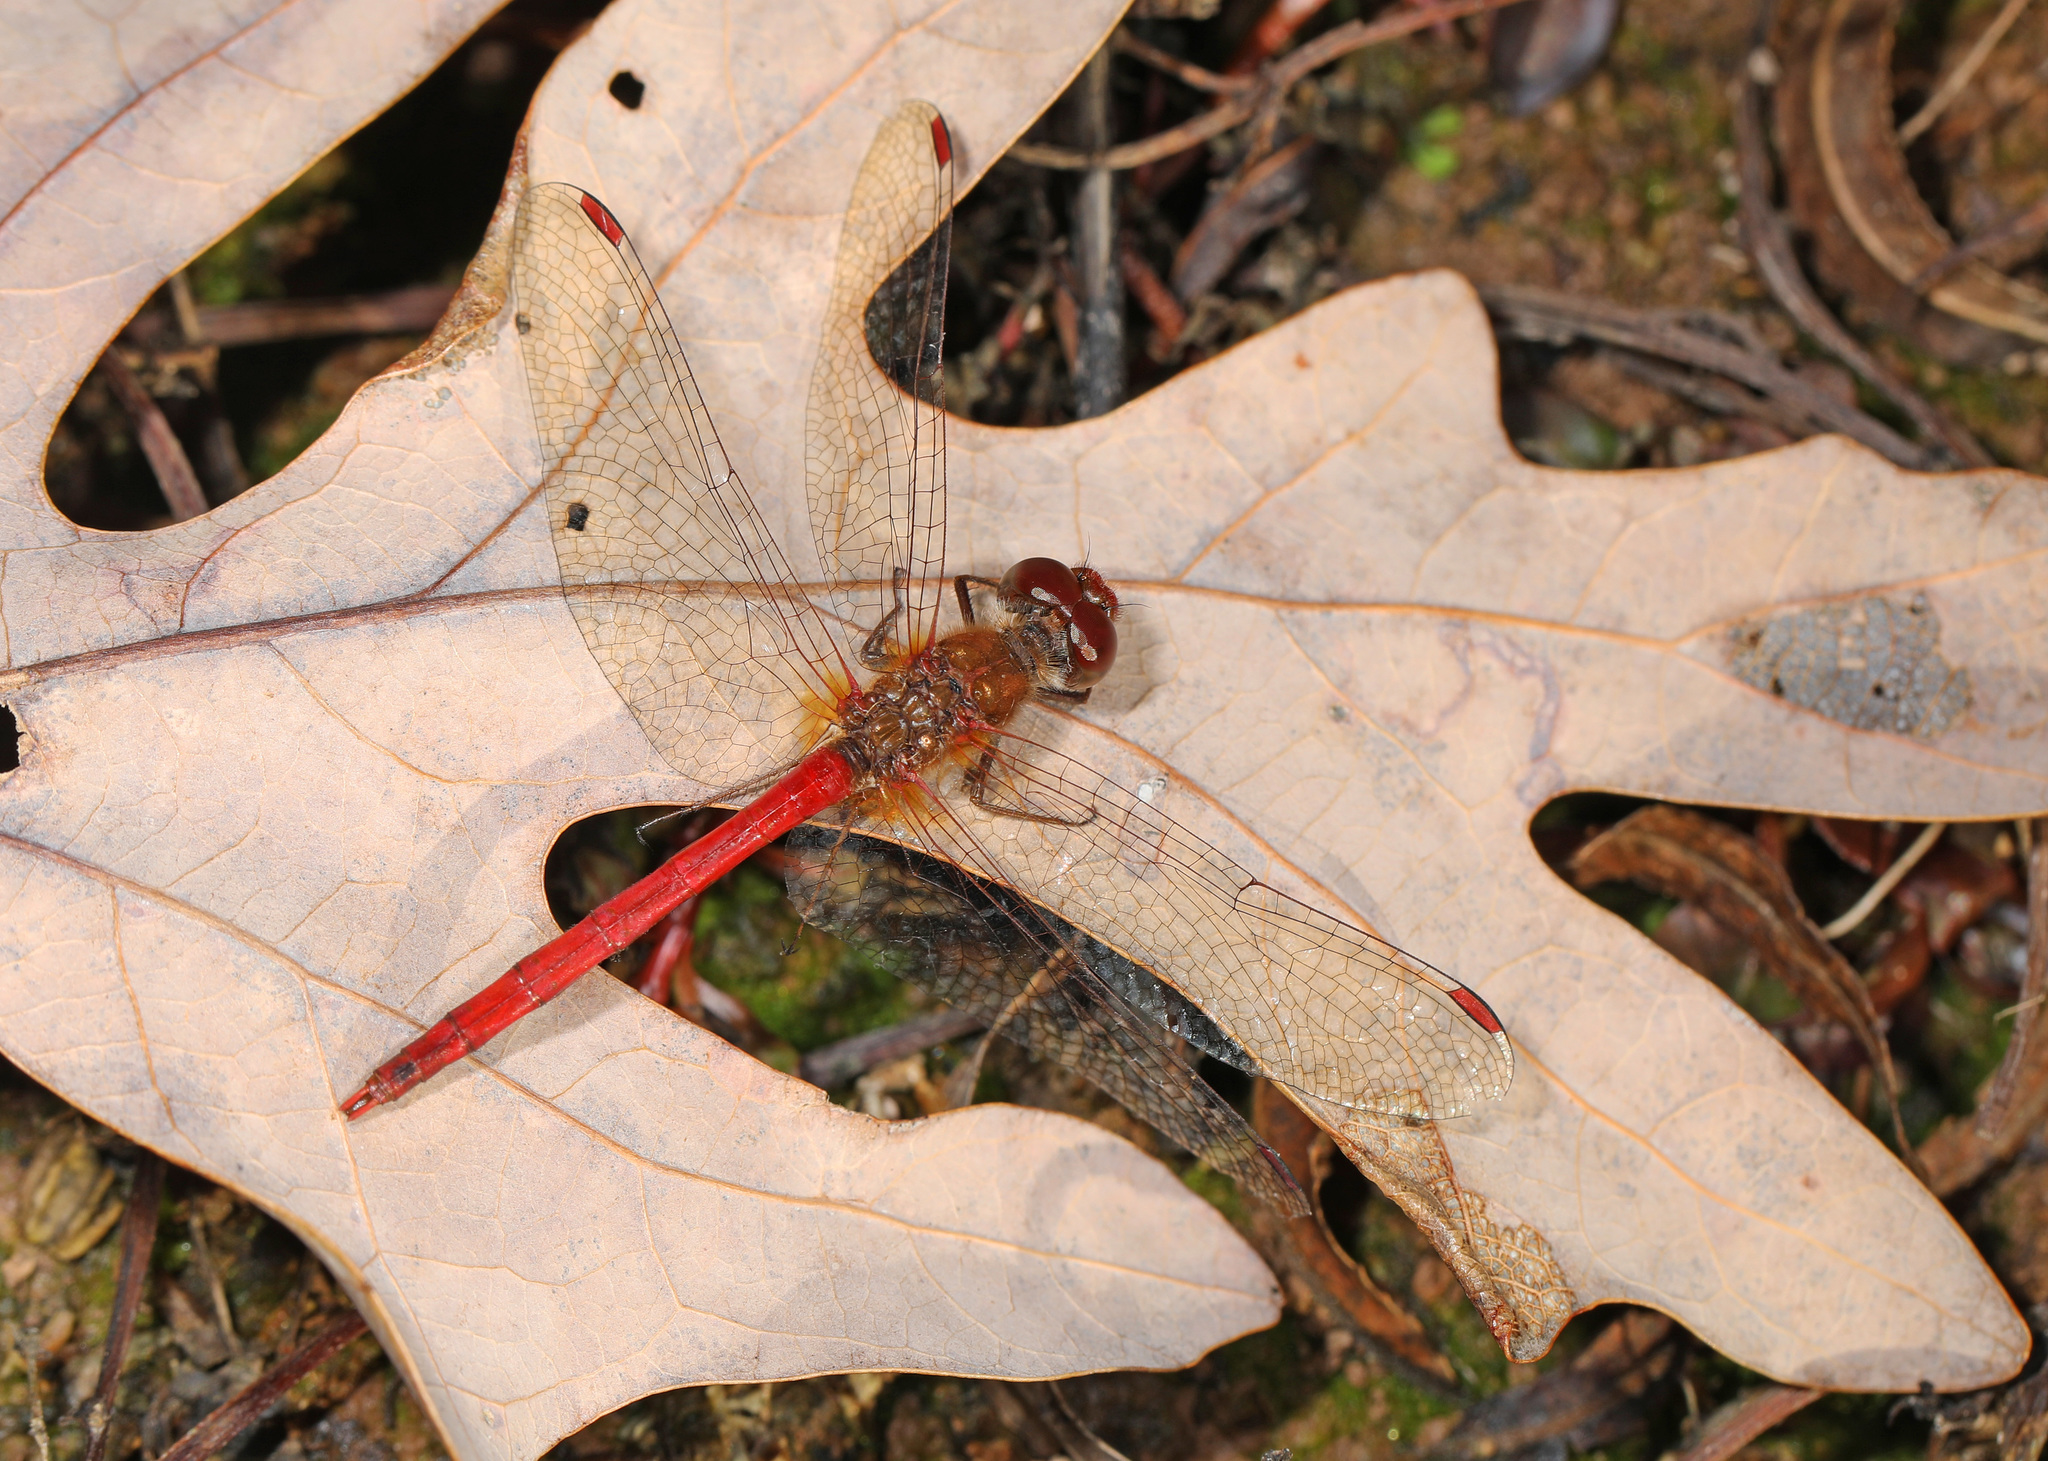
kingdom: Animalia
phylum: Arthropoda
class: Insecta
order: Odonata
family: Libellulidae
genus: Sympetrum
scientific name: Sympetrum vicinum
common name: Autumn meadowhawk
